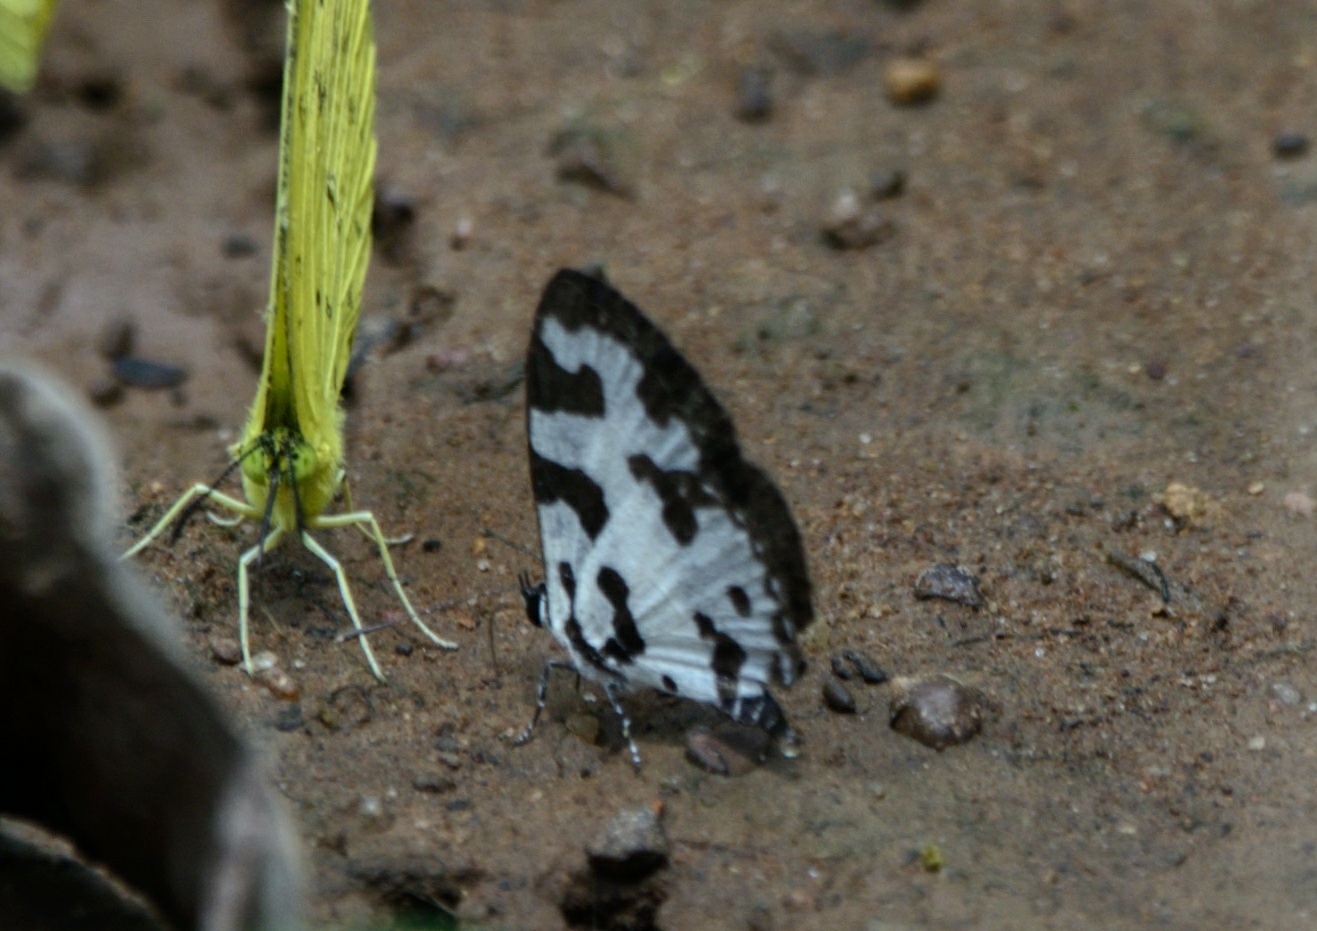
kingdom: Animalia
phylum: Arthropoda
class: Insecta
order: Lepidoptera
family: Lycaenidae
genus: Caleta
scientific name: Caleta decidia
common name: Angled pierrot
